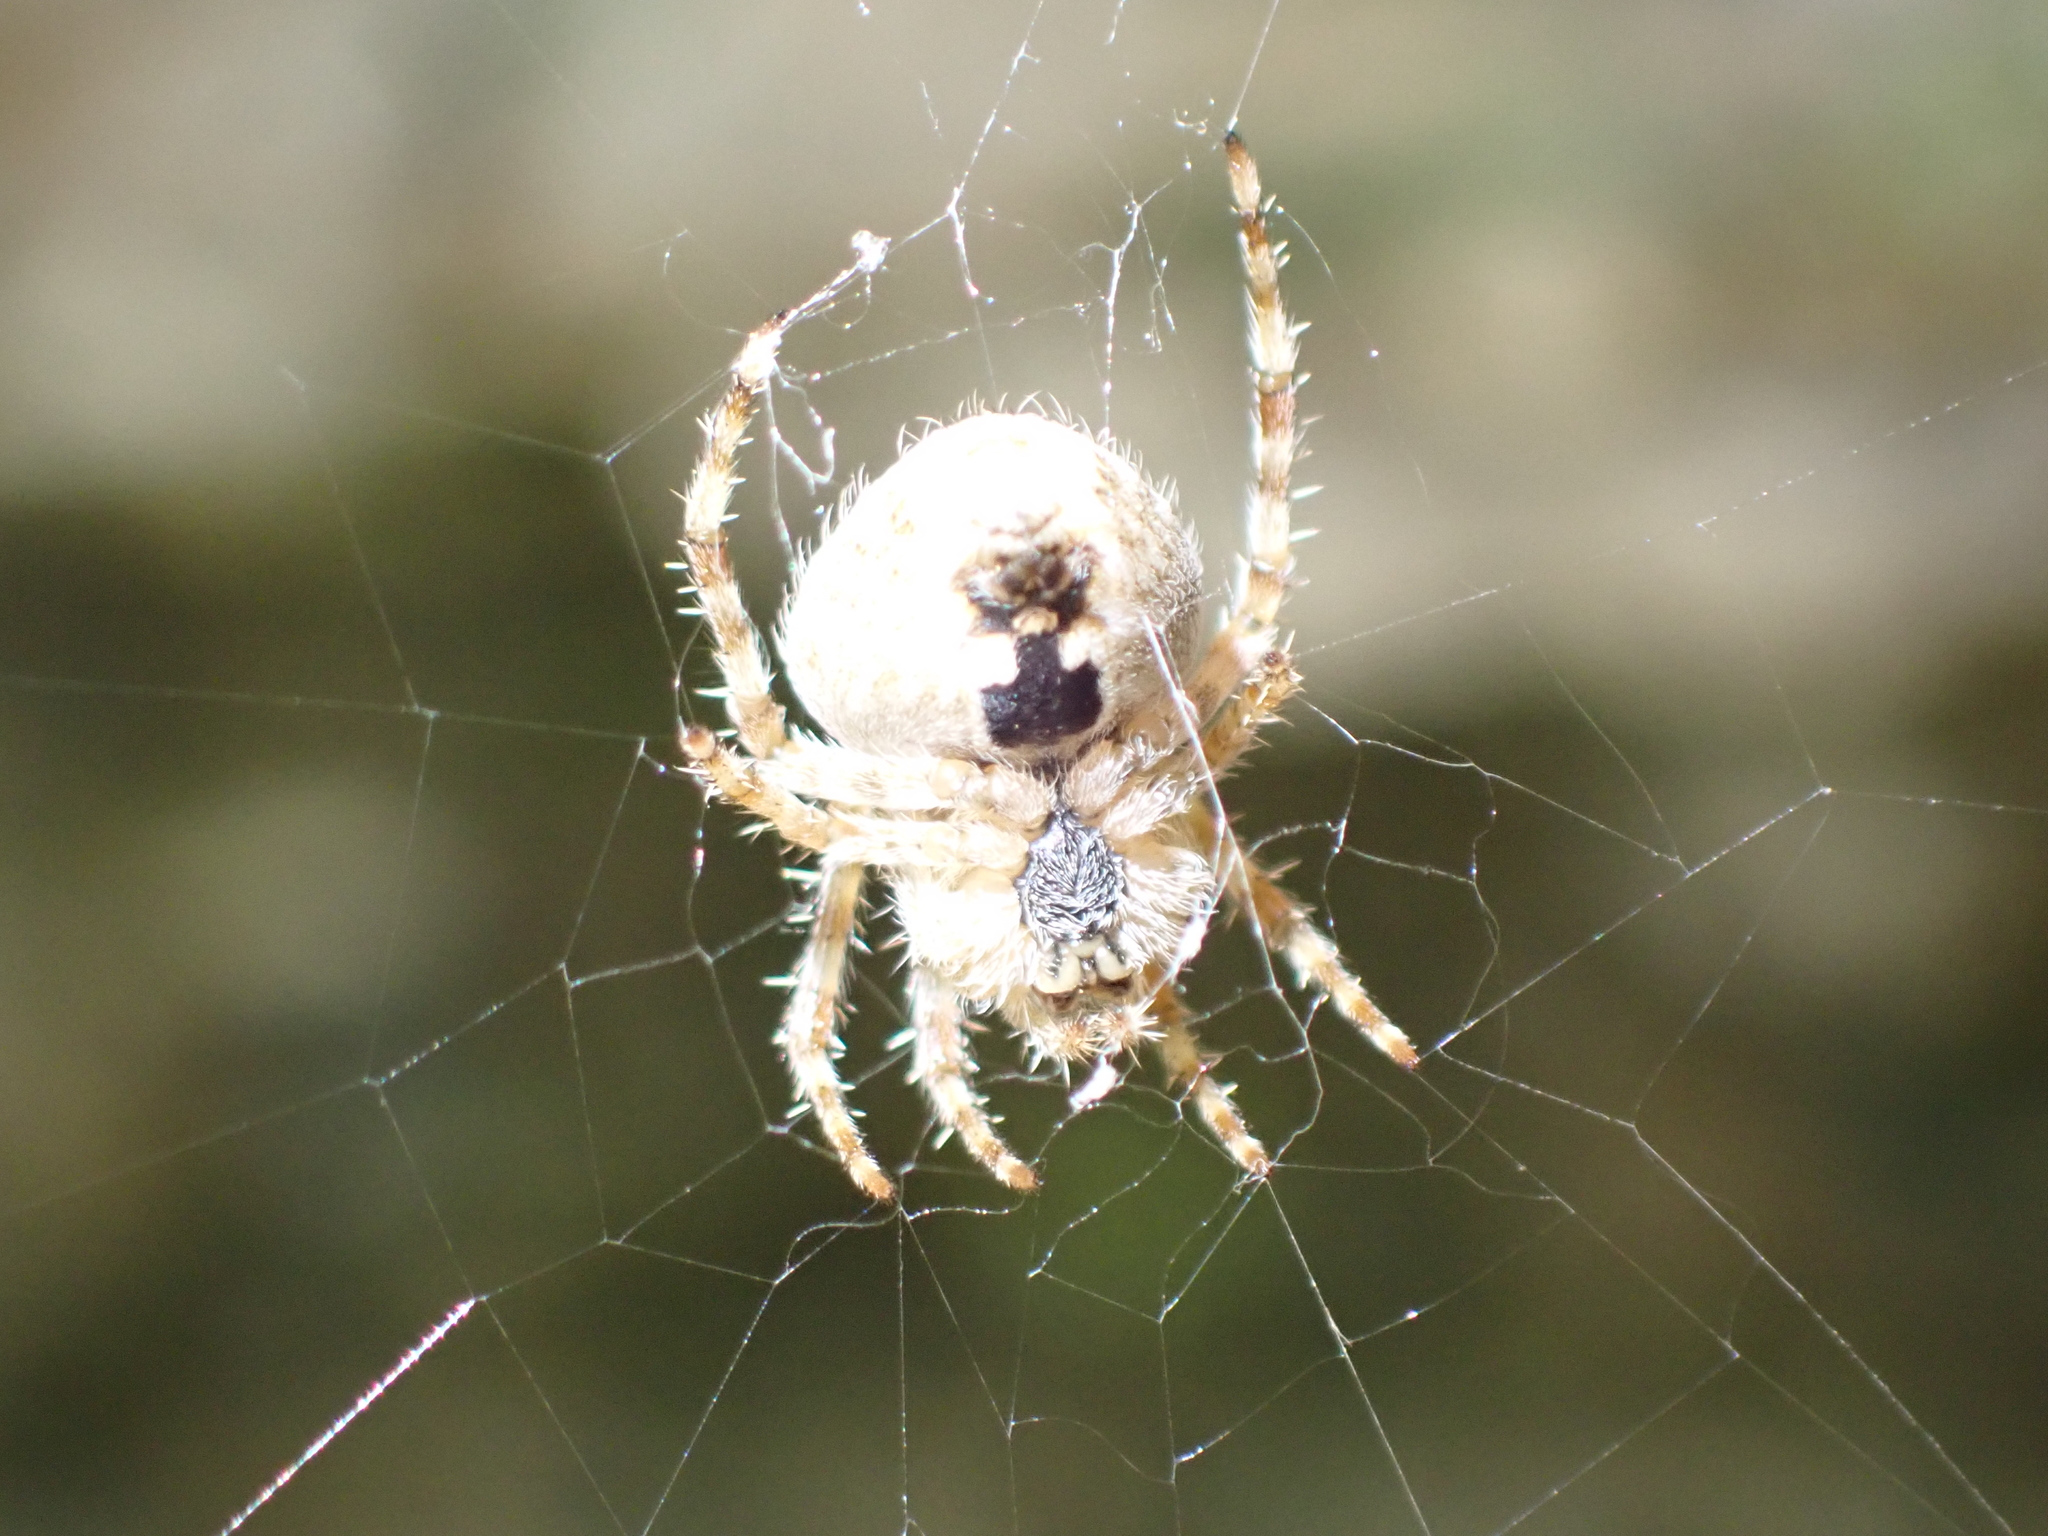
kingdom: Animalia
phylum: Arthropoda
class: Arachnida
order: Araneae
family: Araneidae
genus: Araneus
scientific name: Araneus cavaticus
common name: Barn orbweaver
